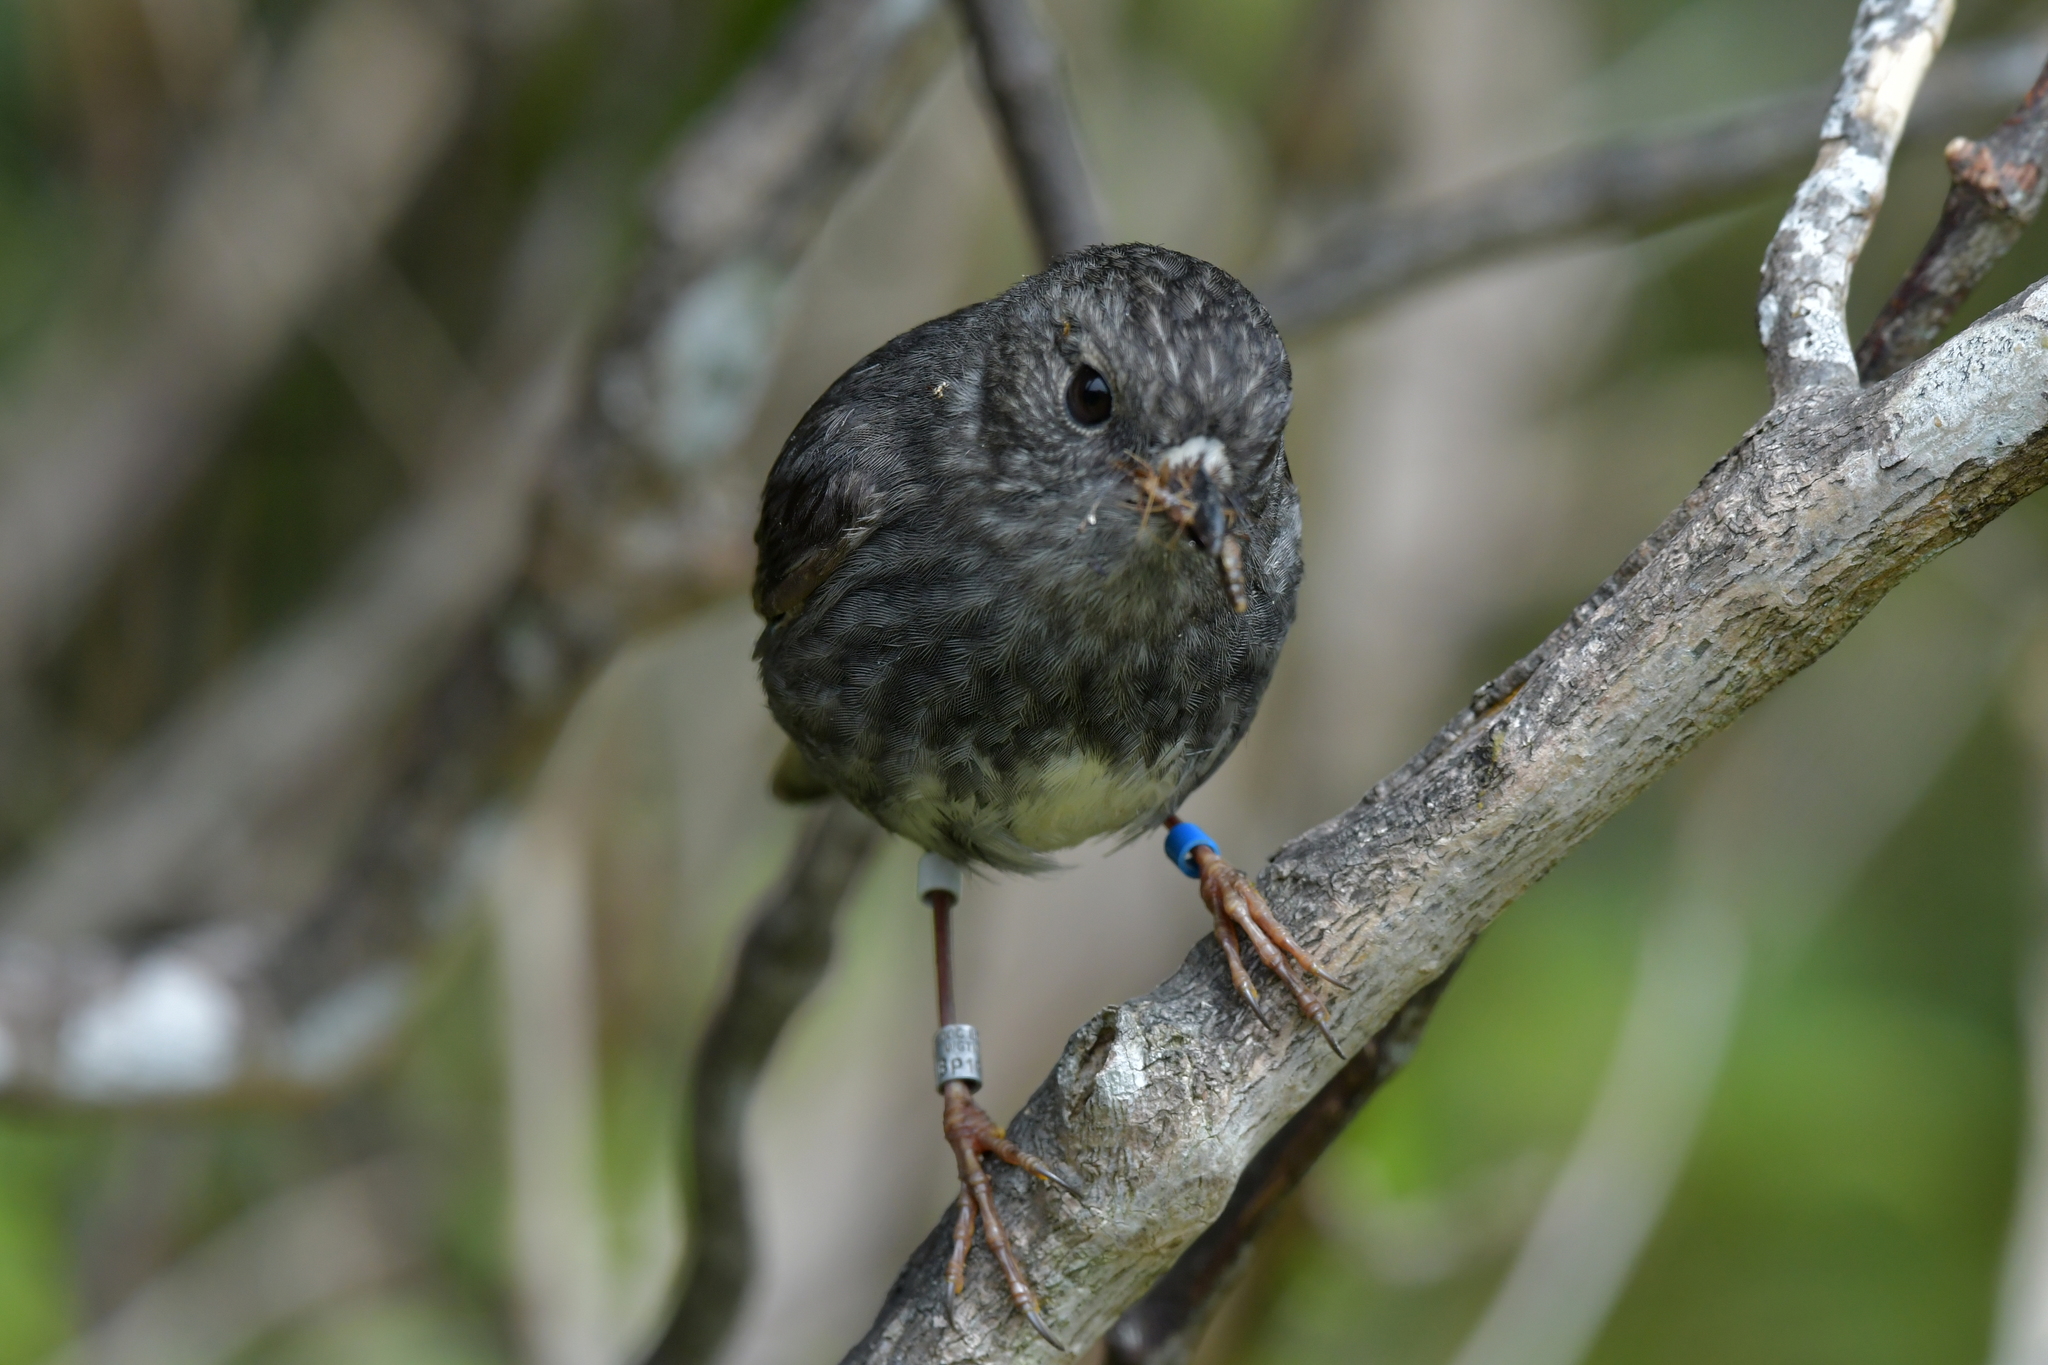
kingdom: Animalia
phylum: Chordata
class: Aves
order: Passeriformes
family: Petroicidae
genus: Petroica
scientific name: Petroica australis
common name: New zealand robin
